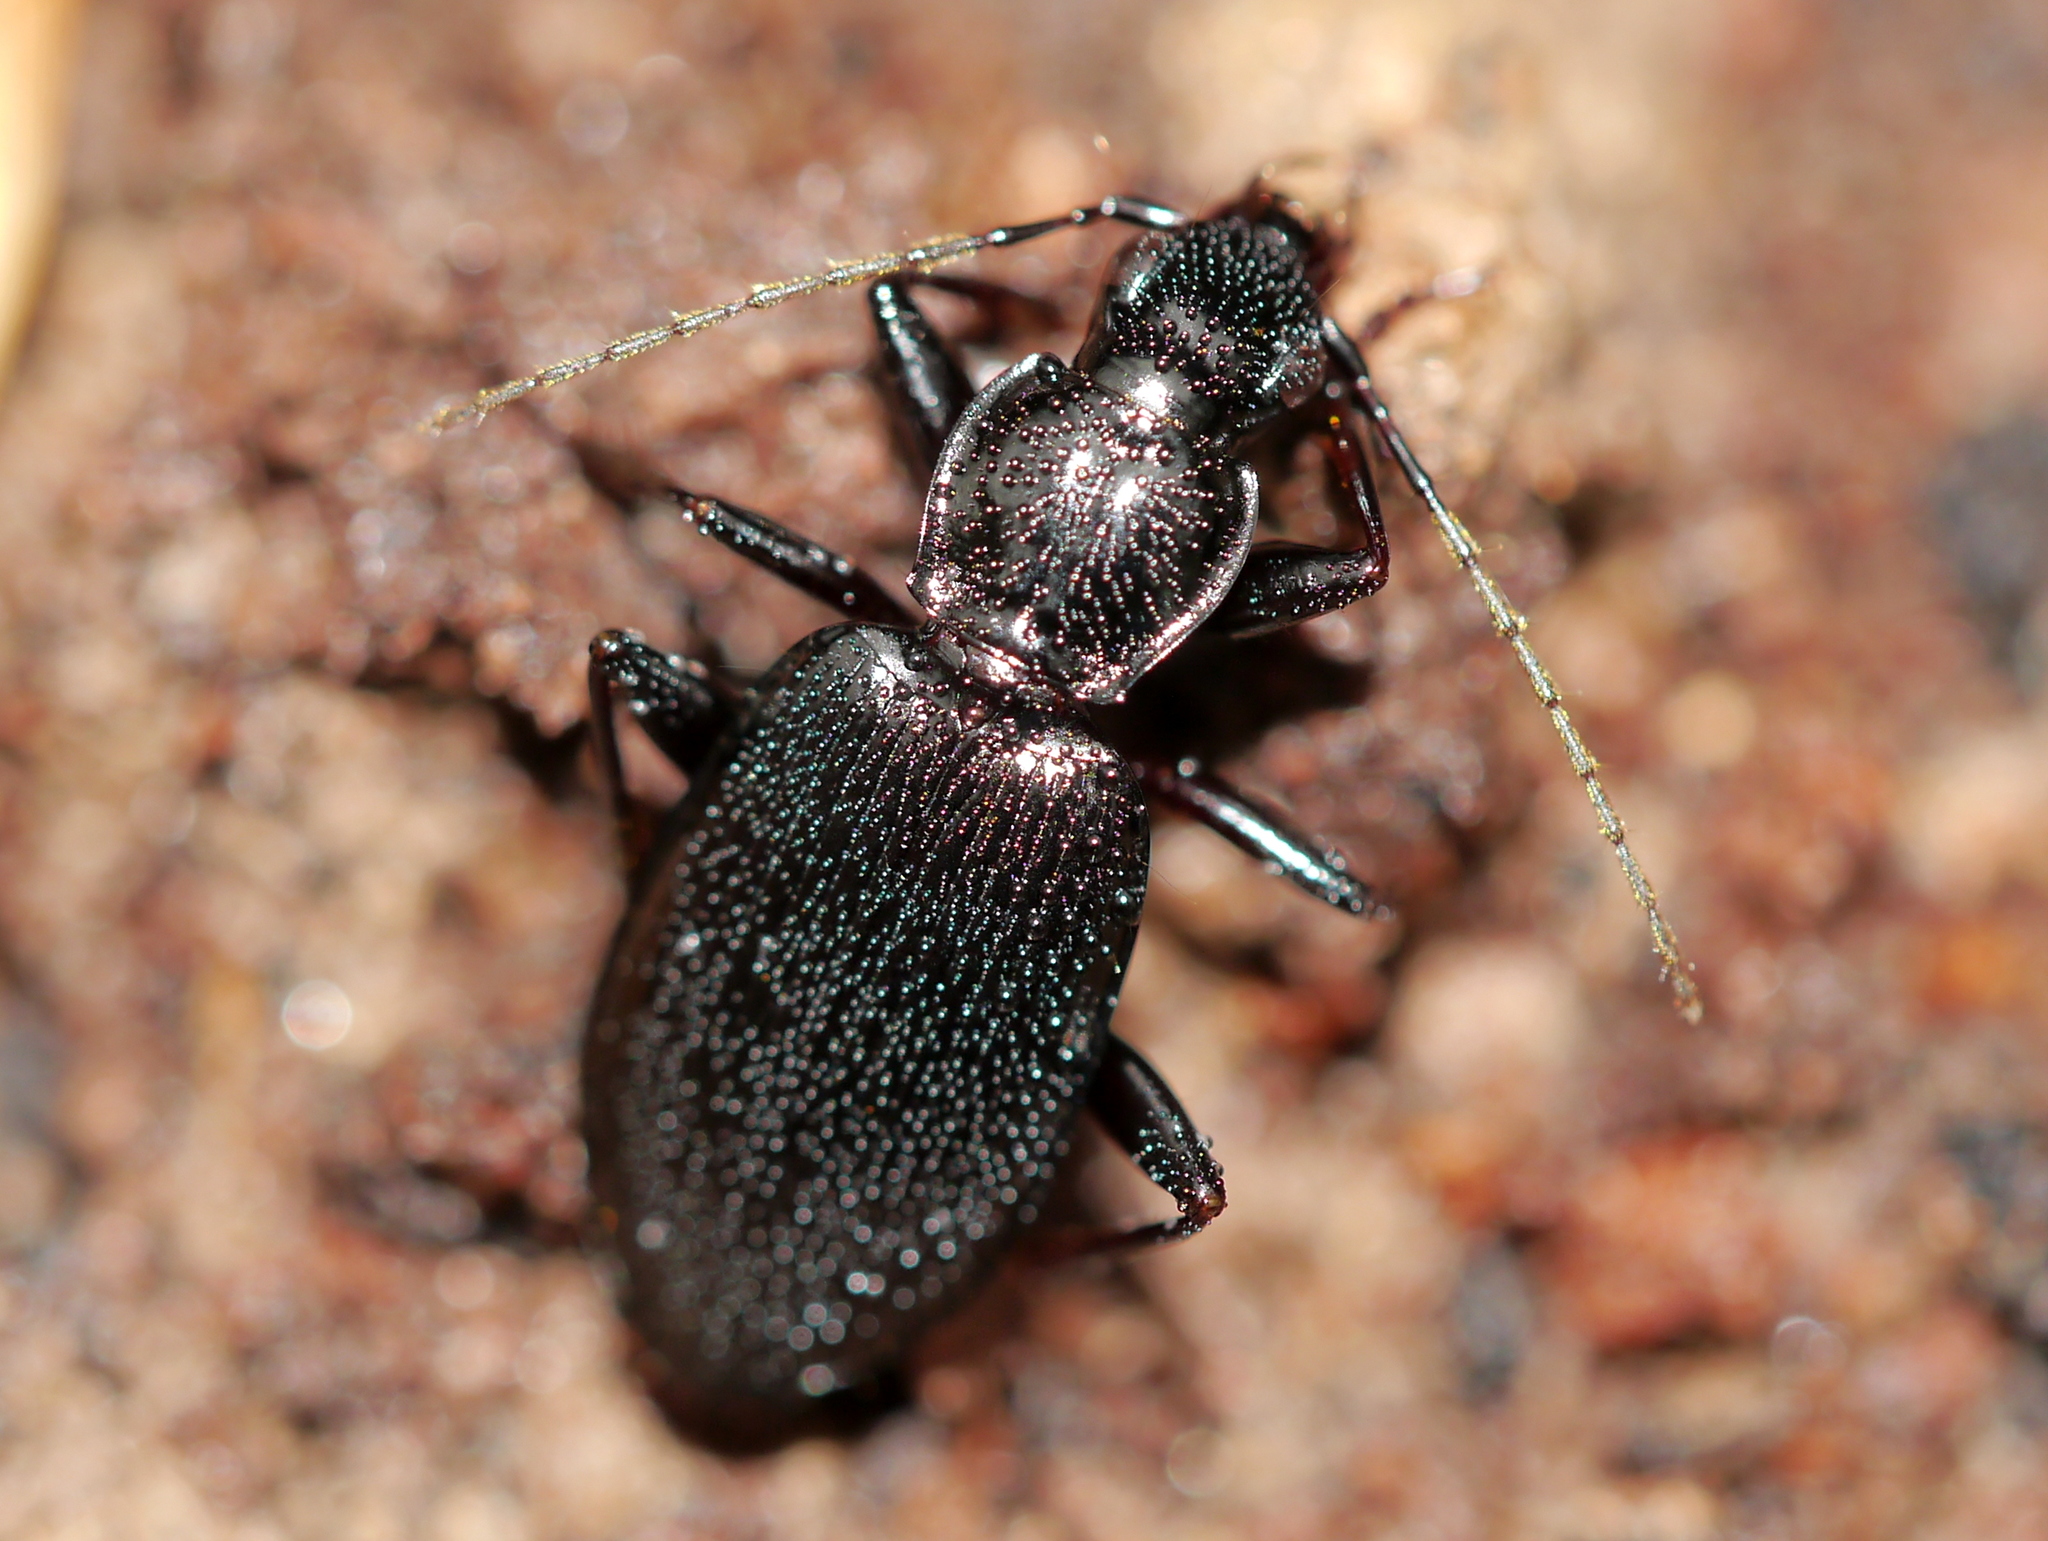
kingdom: Animalia
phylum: Arthropoda
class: Insecta
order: Coleoptera
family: Carabidae
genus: Platynus
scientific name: Platynus decentis
